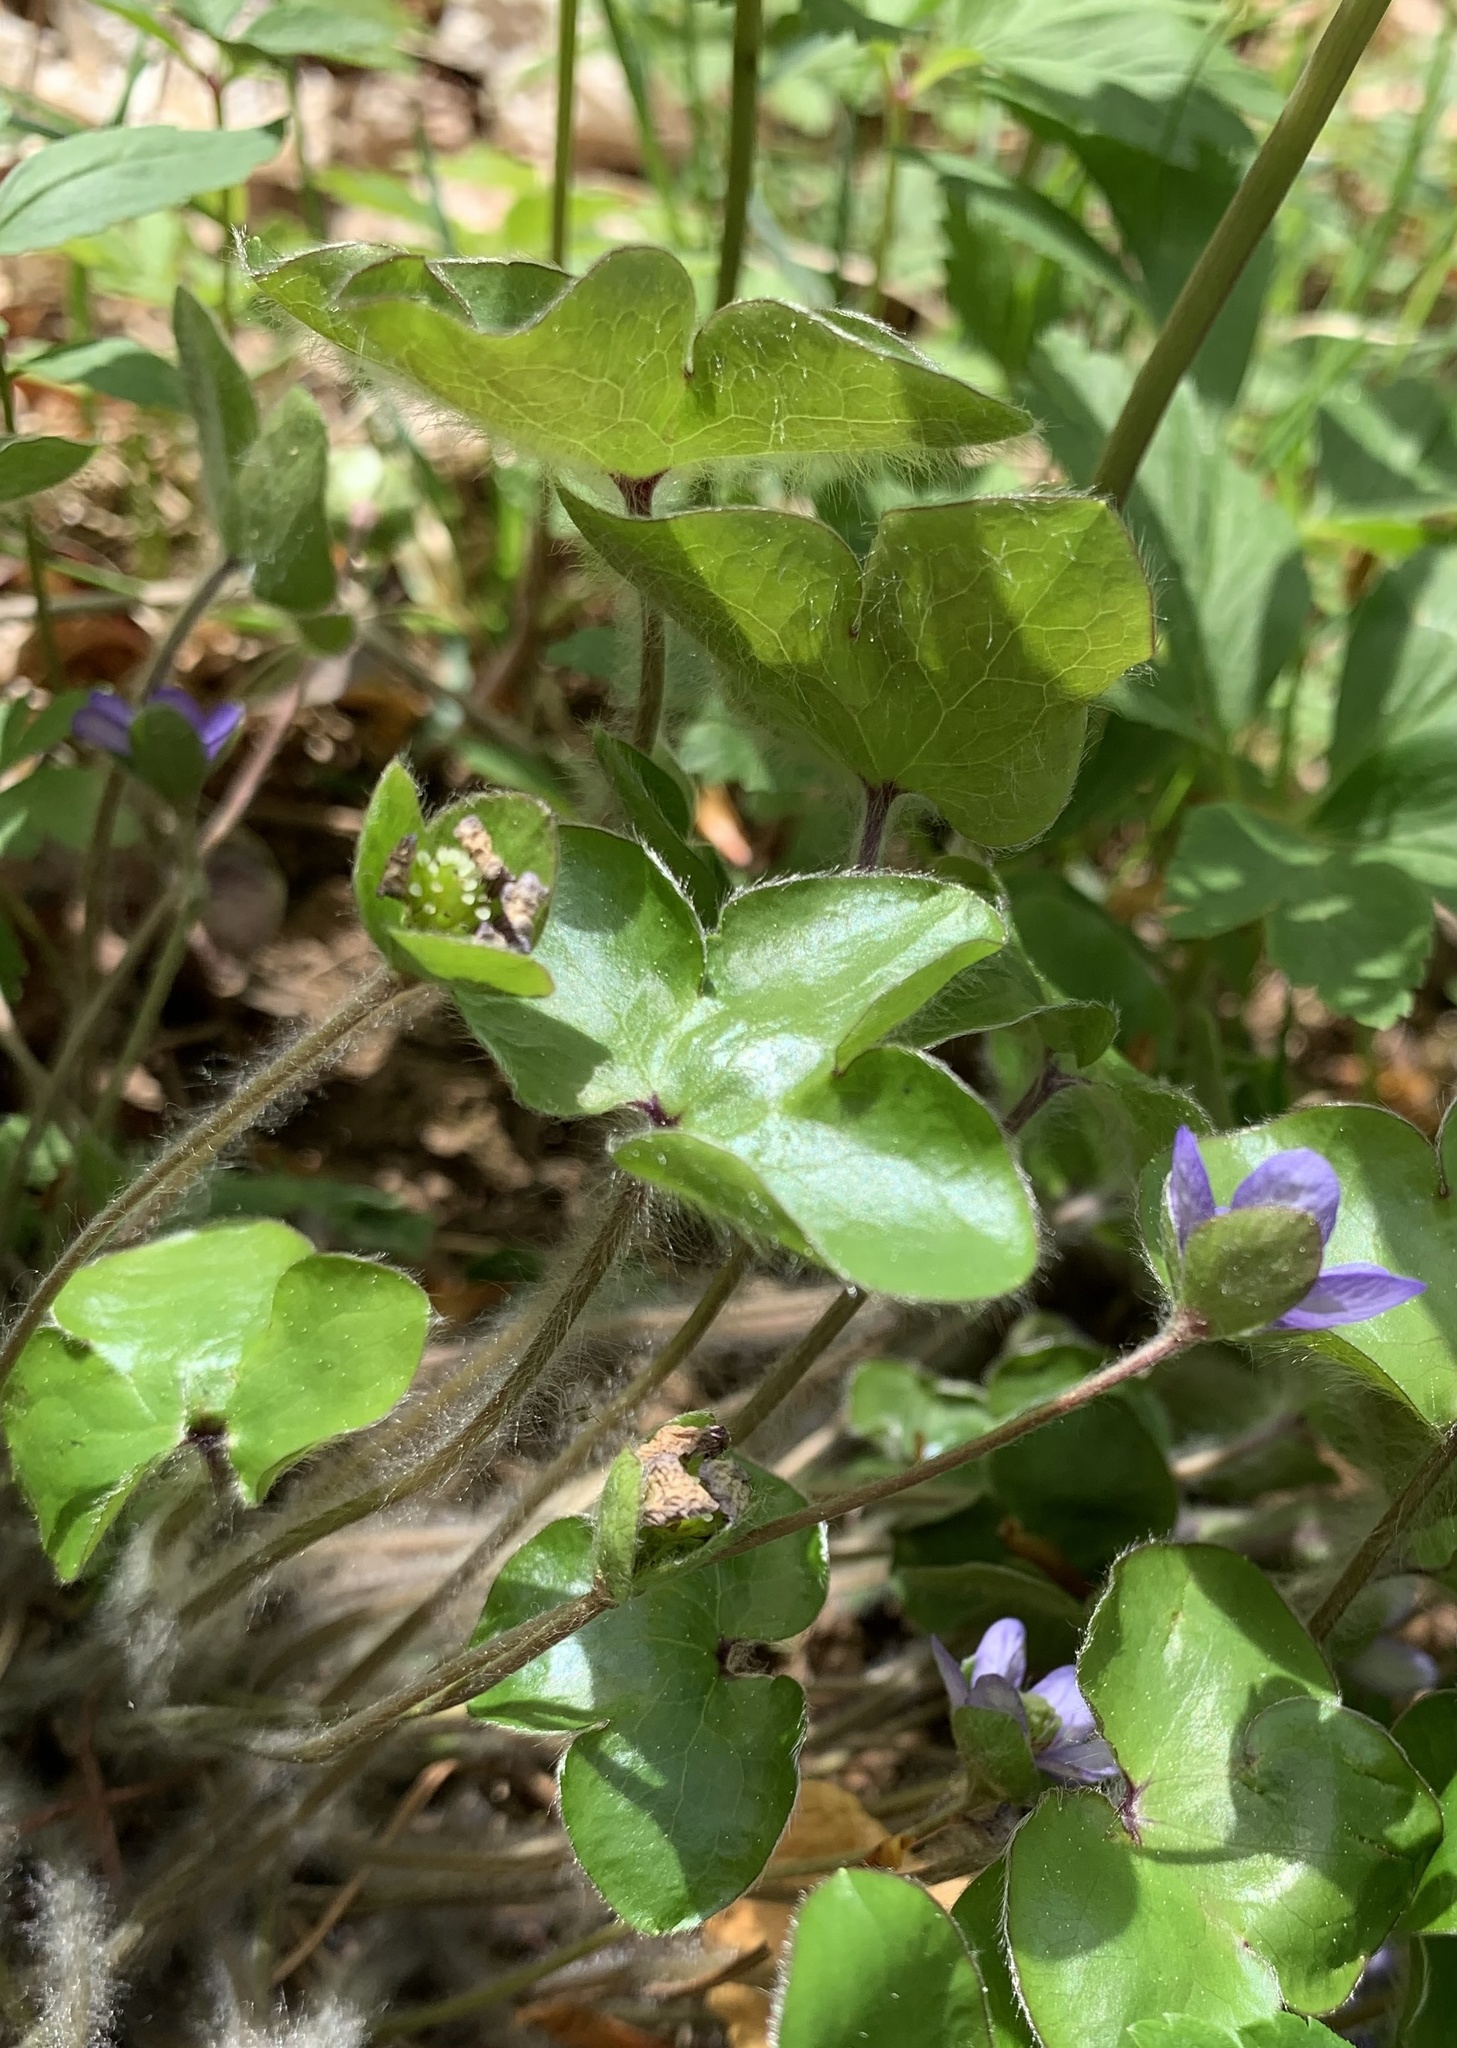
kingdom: Plantae
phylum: Tracheophyta
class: Magnoliopsida
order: Ranunculales
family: Ranunculaceae
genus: Hepatica
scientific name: Hepatica nobilis
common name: Liverleaf
